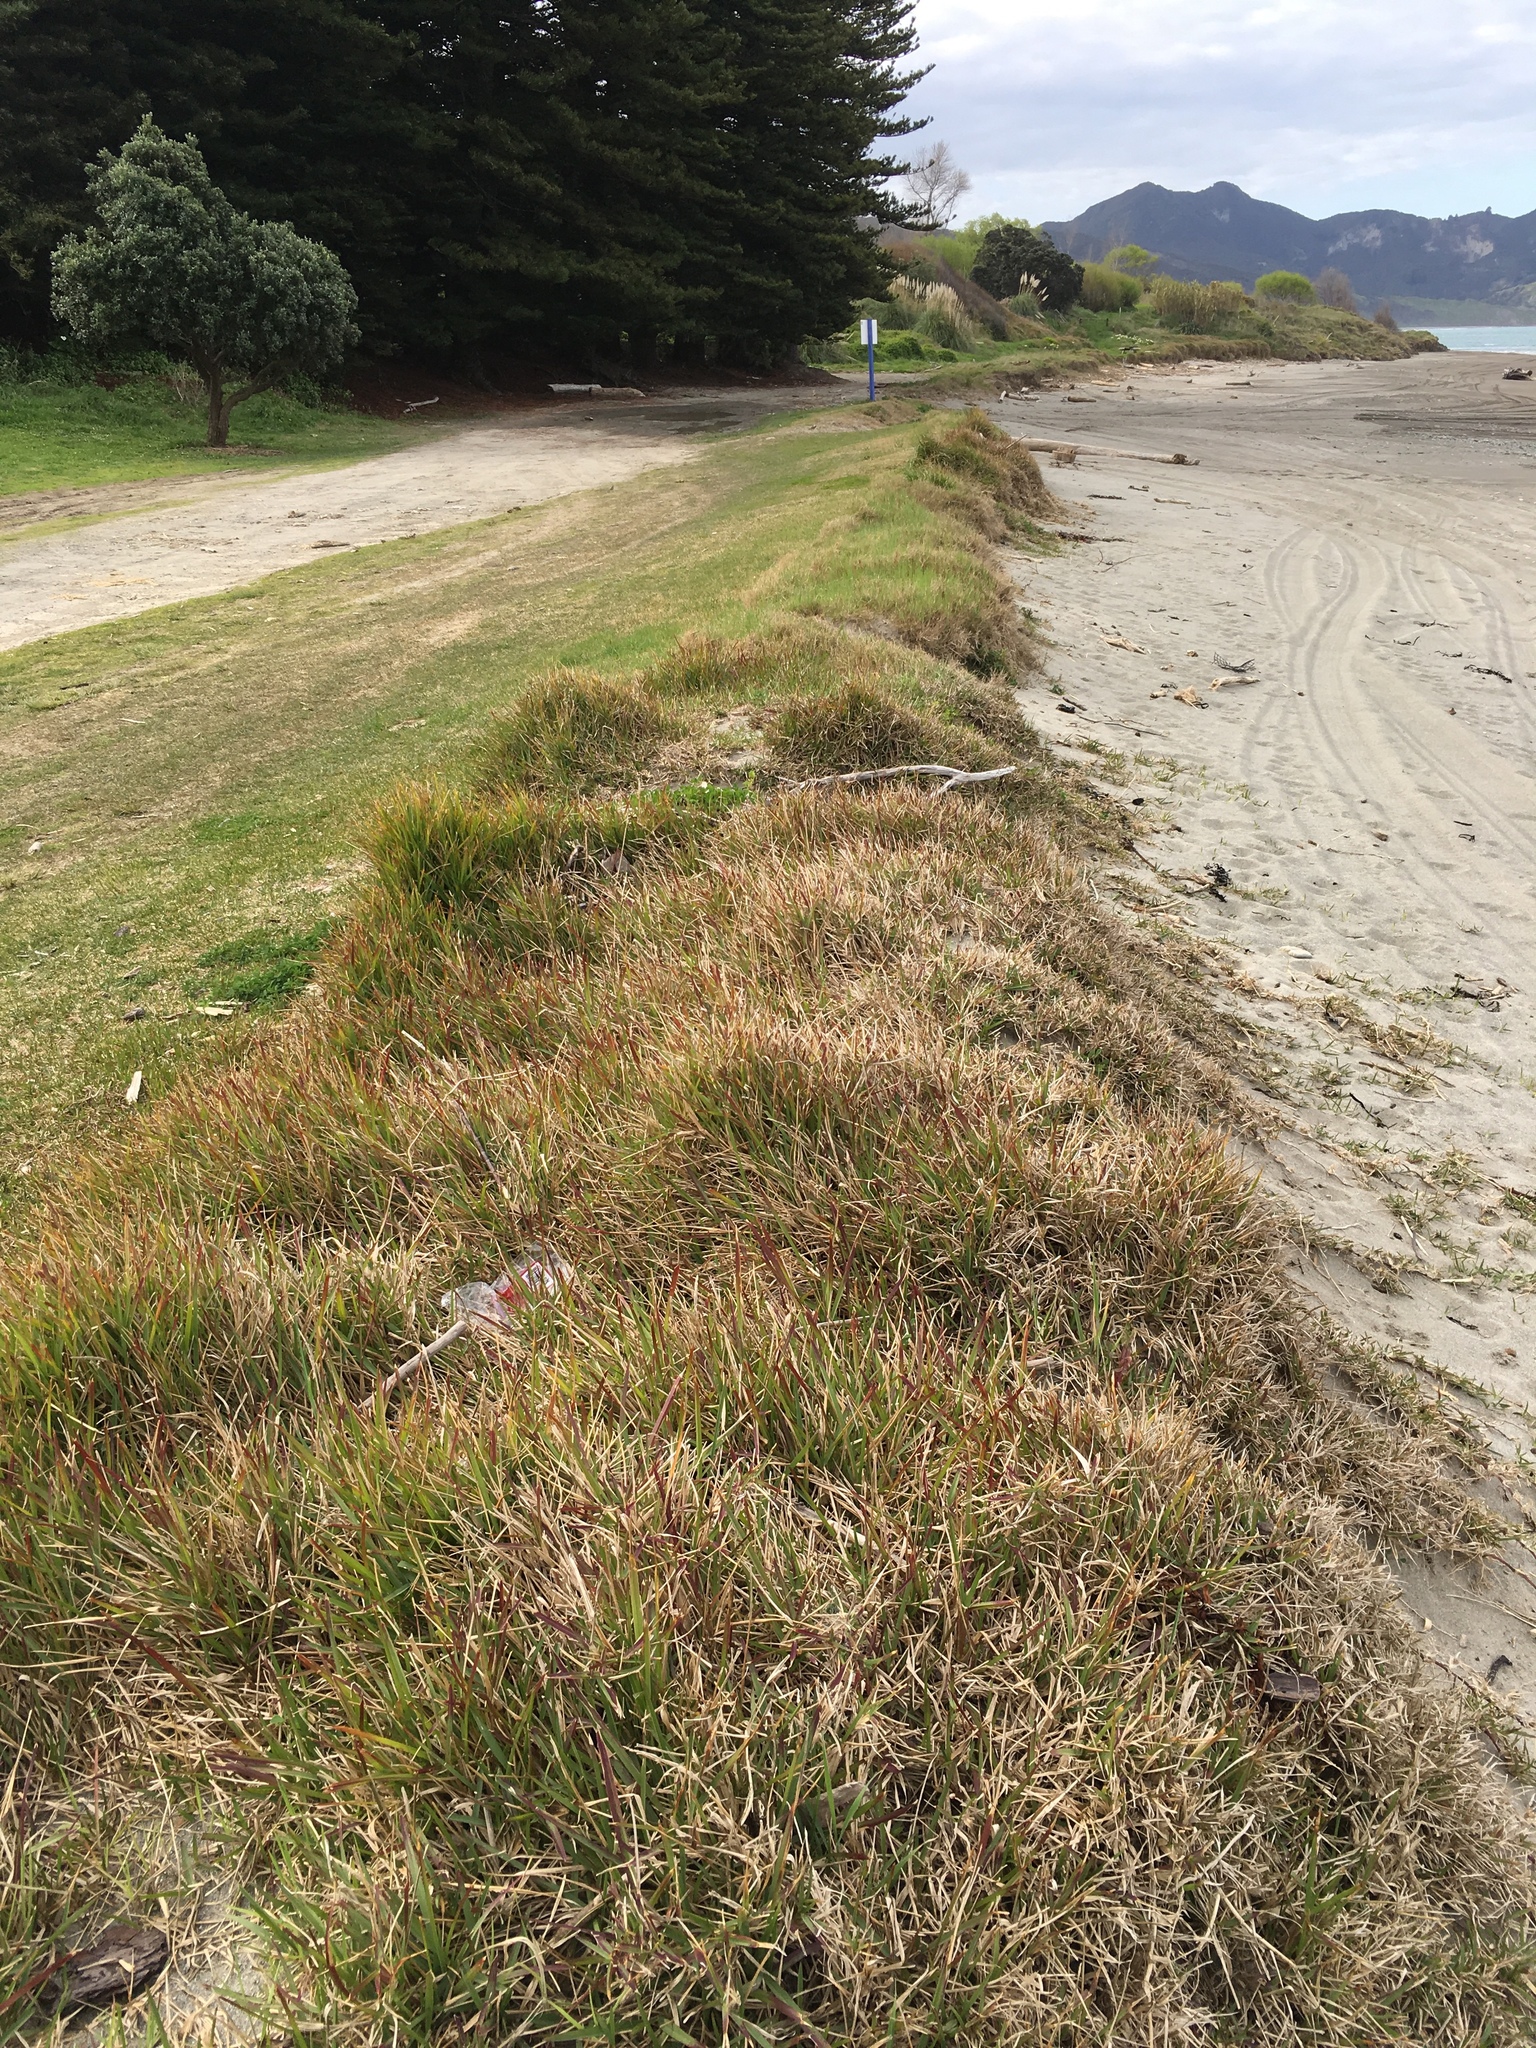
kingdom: Plantae
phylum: Tracheophyta
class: Liliopsida
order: Poales
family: Poaceae
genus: Stenotaphrum
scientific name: Stenotaphrum secundatum
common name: St. augustine grass
